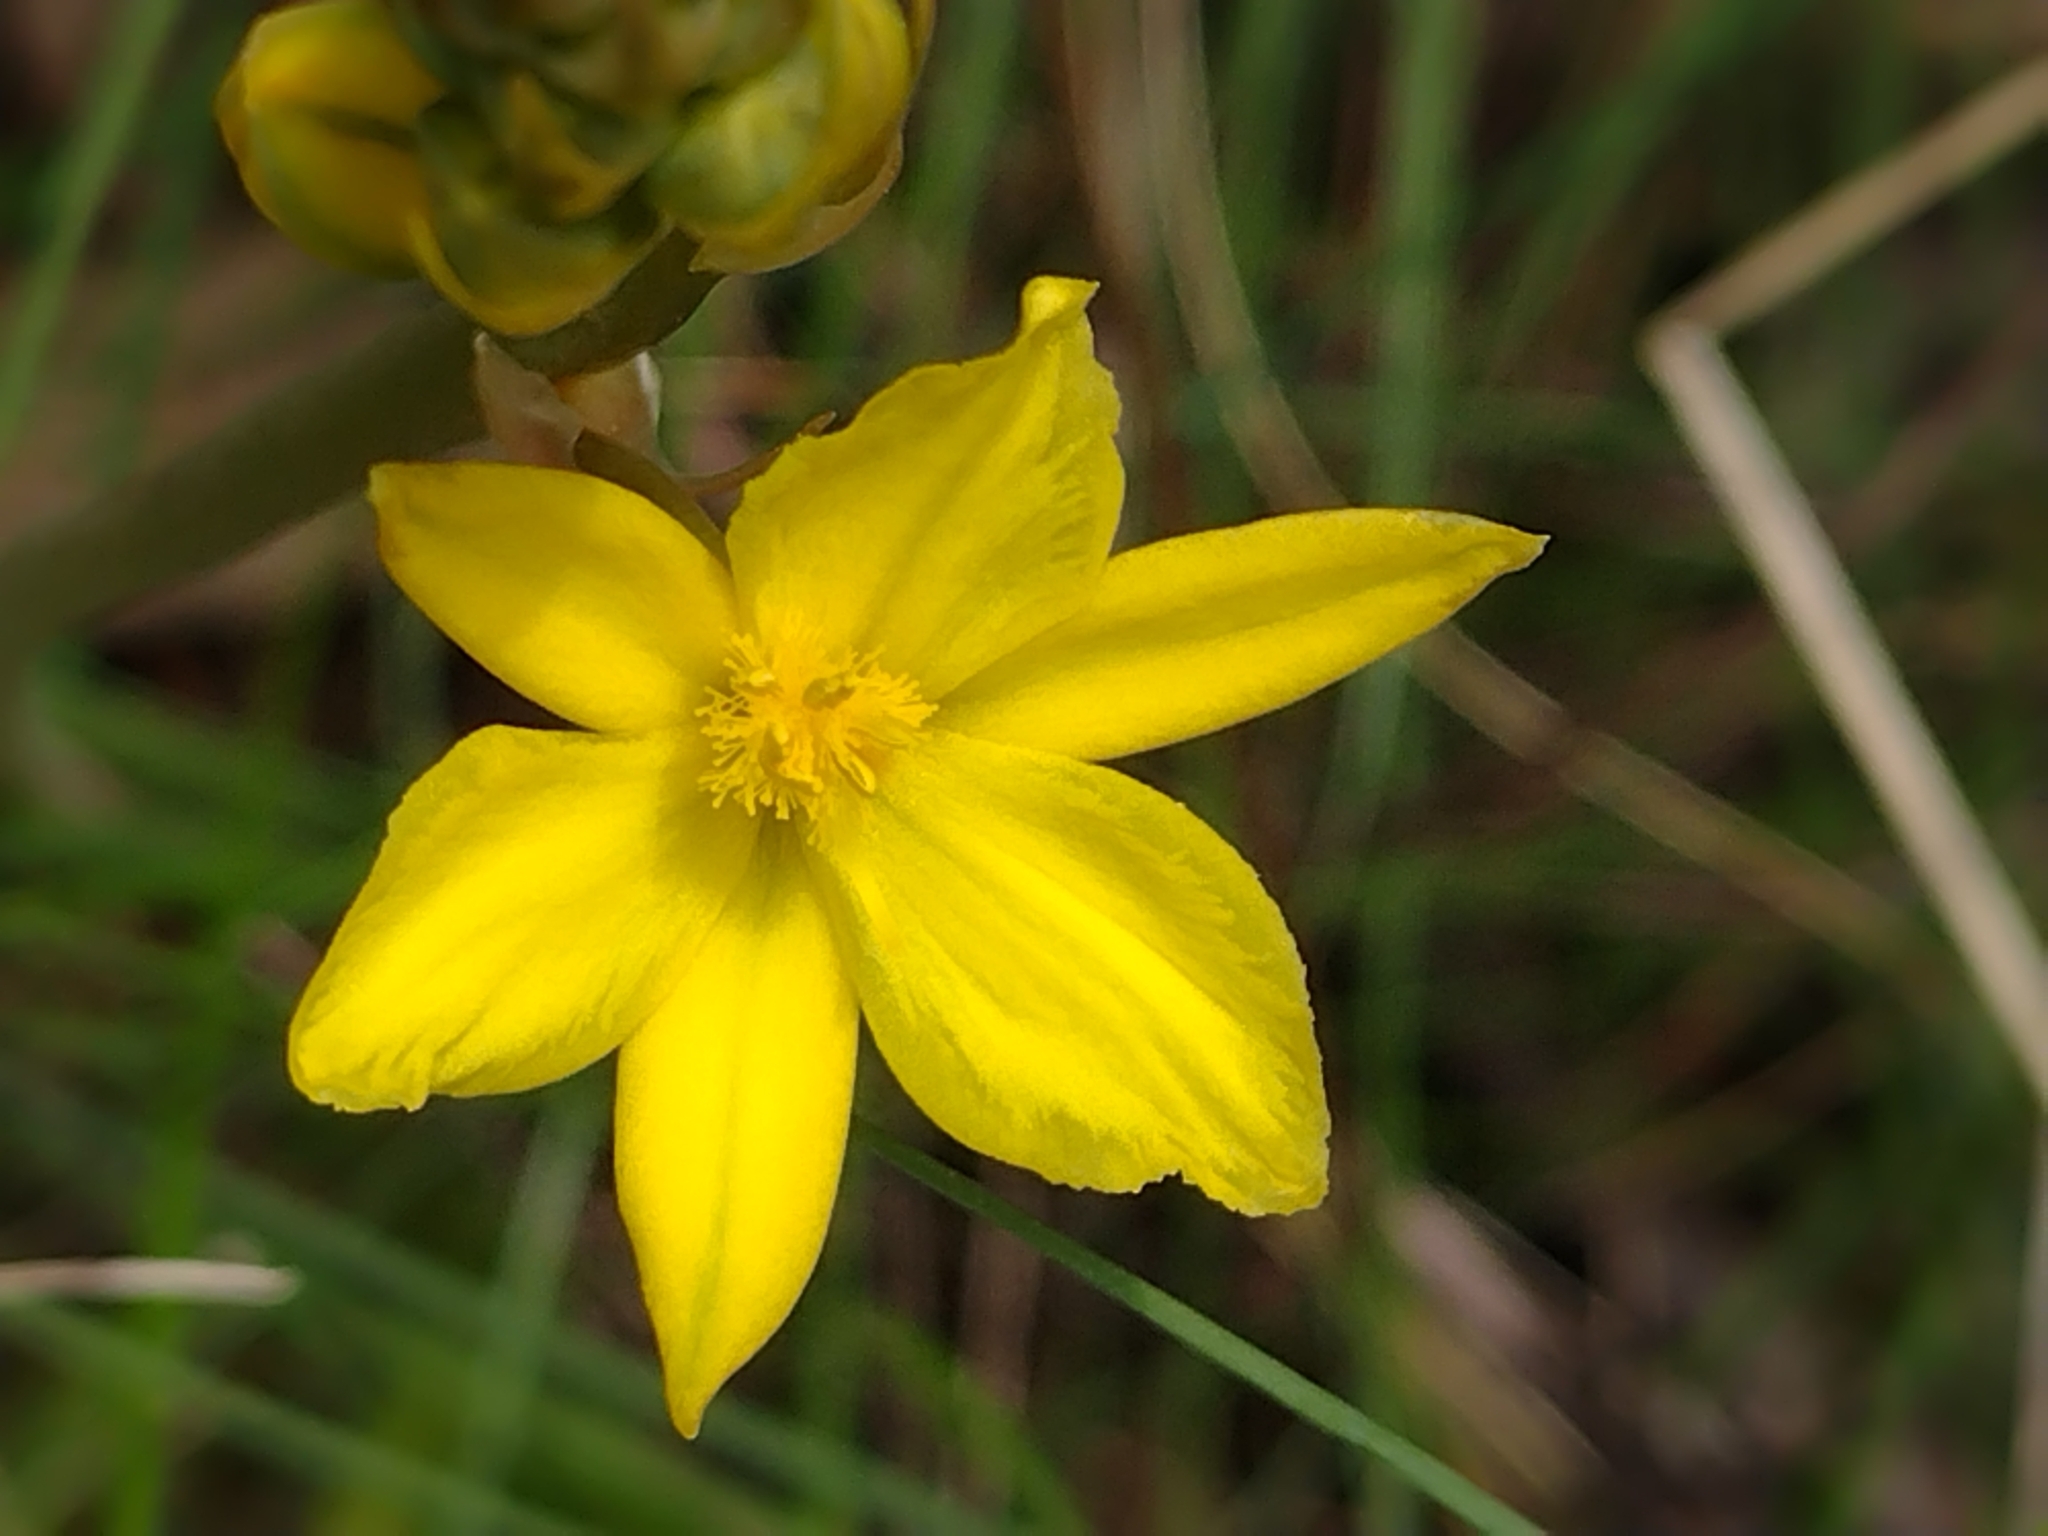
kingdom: Plantae
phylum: Tracheophyta
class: Liliopsida
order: Asparagales
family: Asphodelaceae
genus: Bulbine
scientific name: Bulbine bulbosa
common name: Golden-lily
